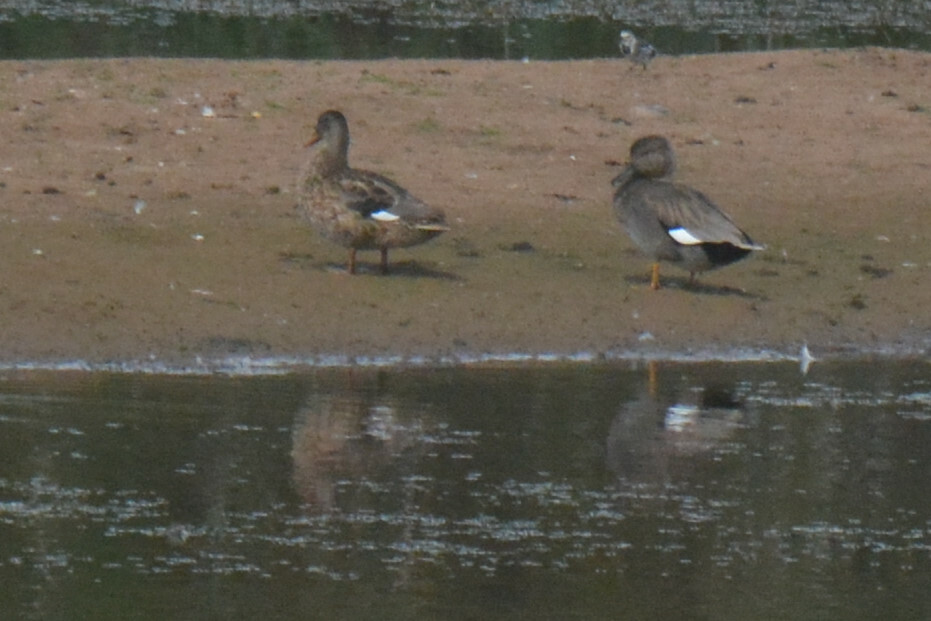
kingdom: Animalia
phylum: Chordata
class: Aves
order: Anseriformes
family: Anatidae
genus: Mareca
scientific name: Mareca strepera
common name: Gadwall
